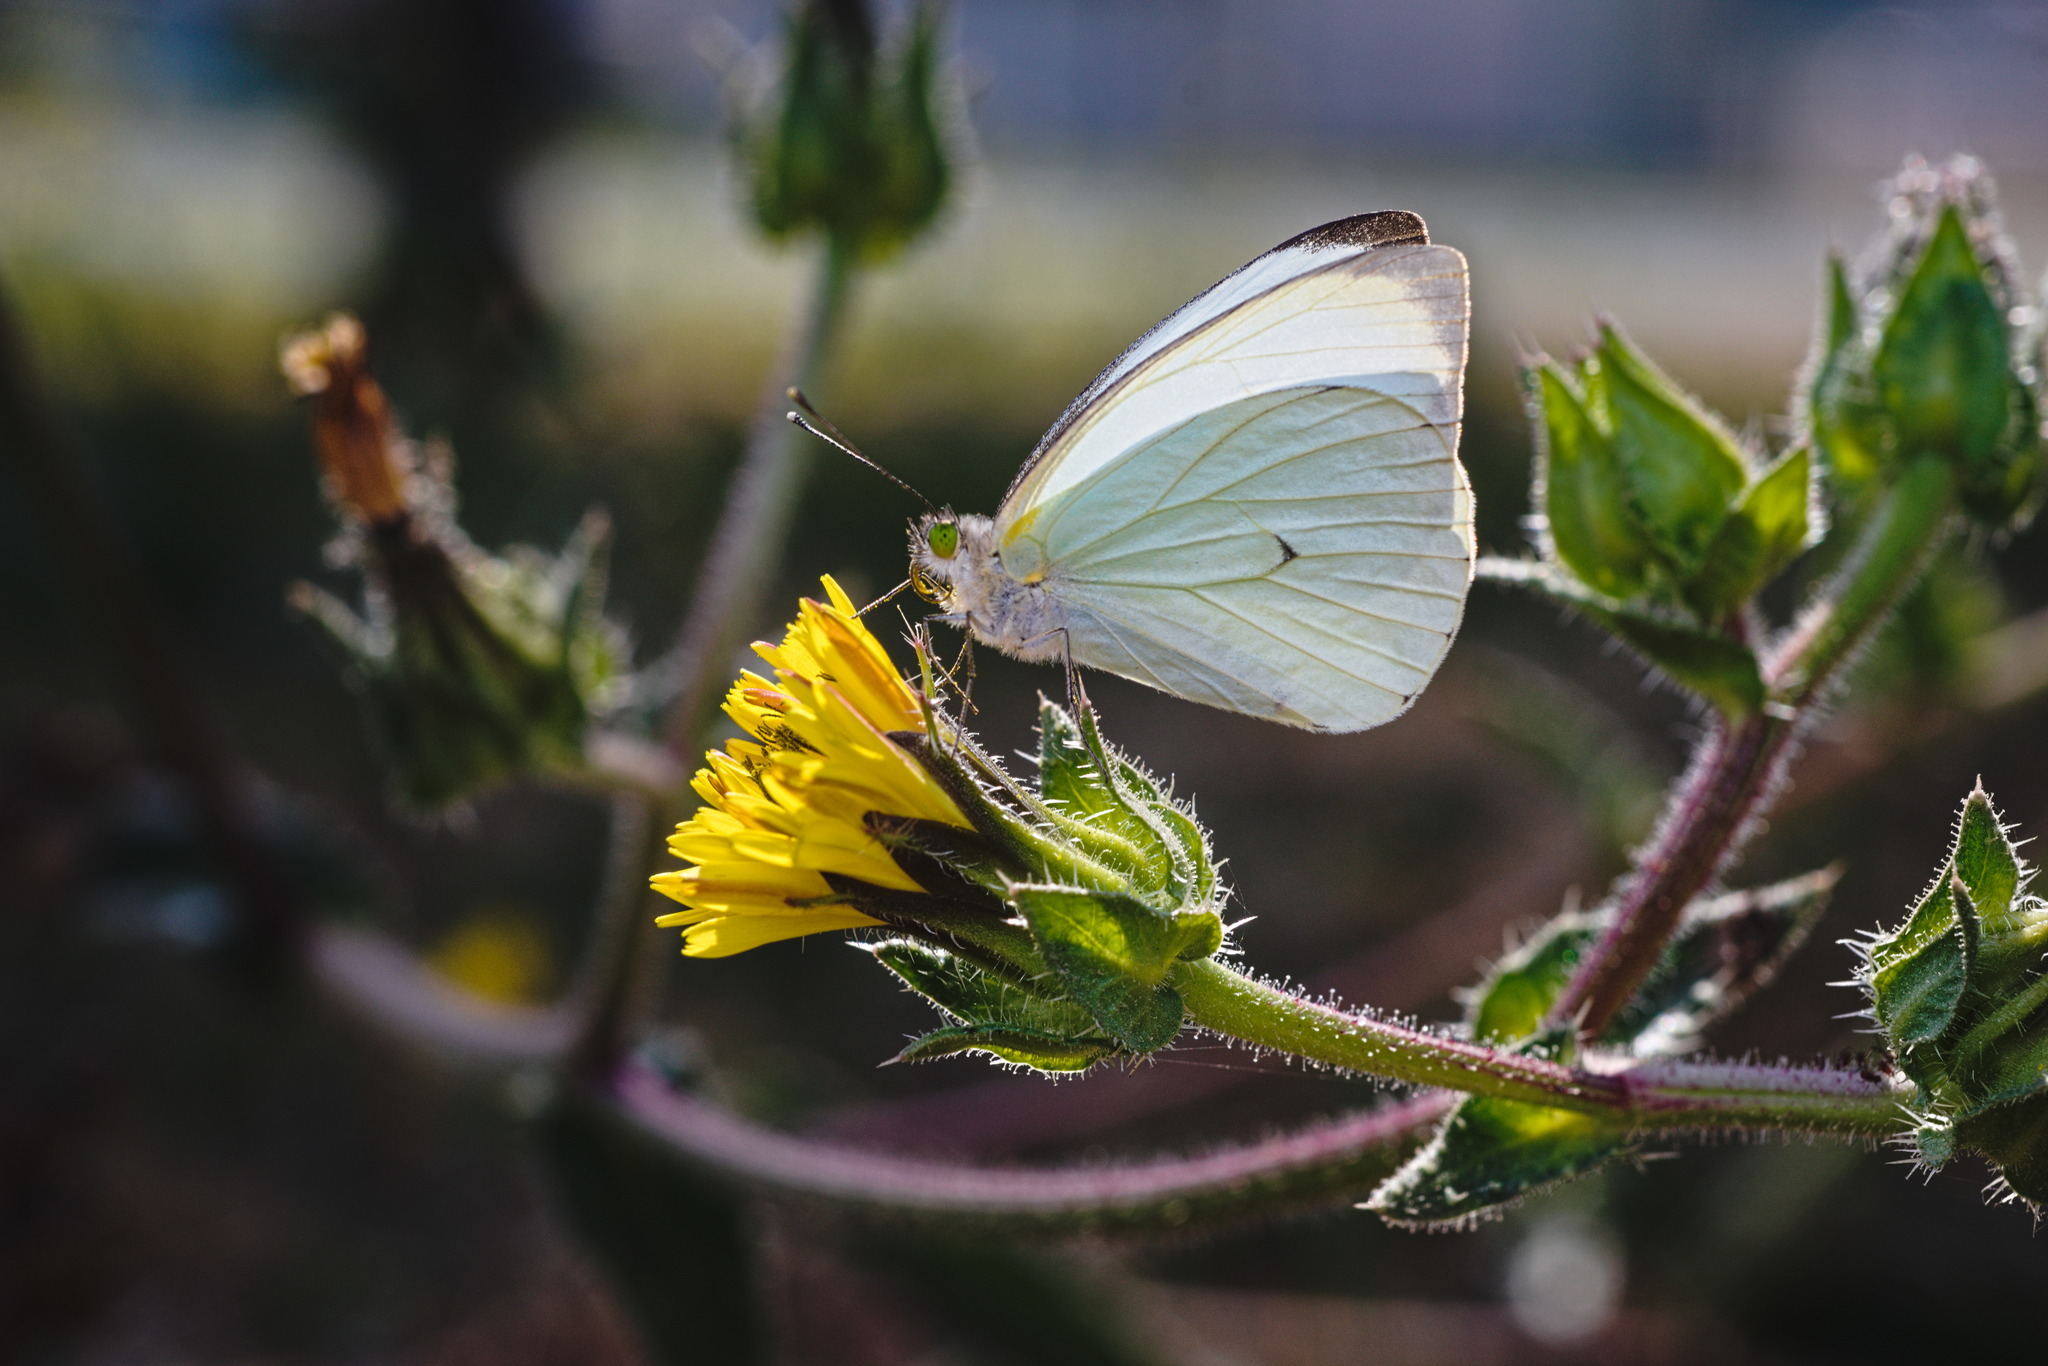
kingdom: Animalia
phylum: Arthropoda
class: Insecta
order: Lepidoptera
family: Pieridae
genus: Leptophobia
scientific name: Leptophobia aripa
